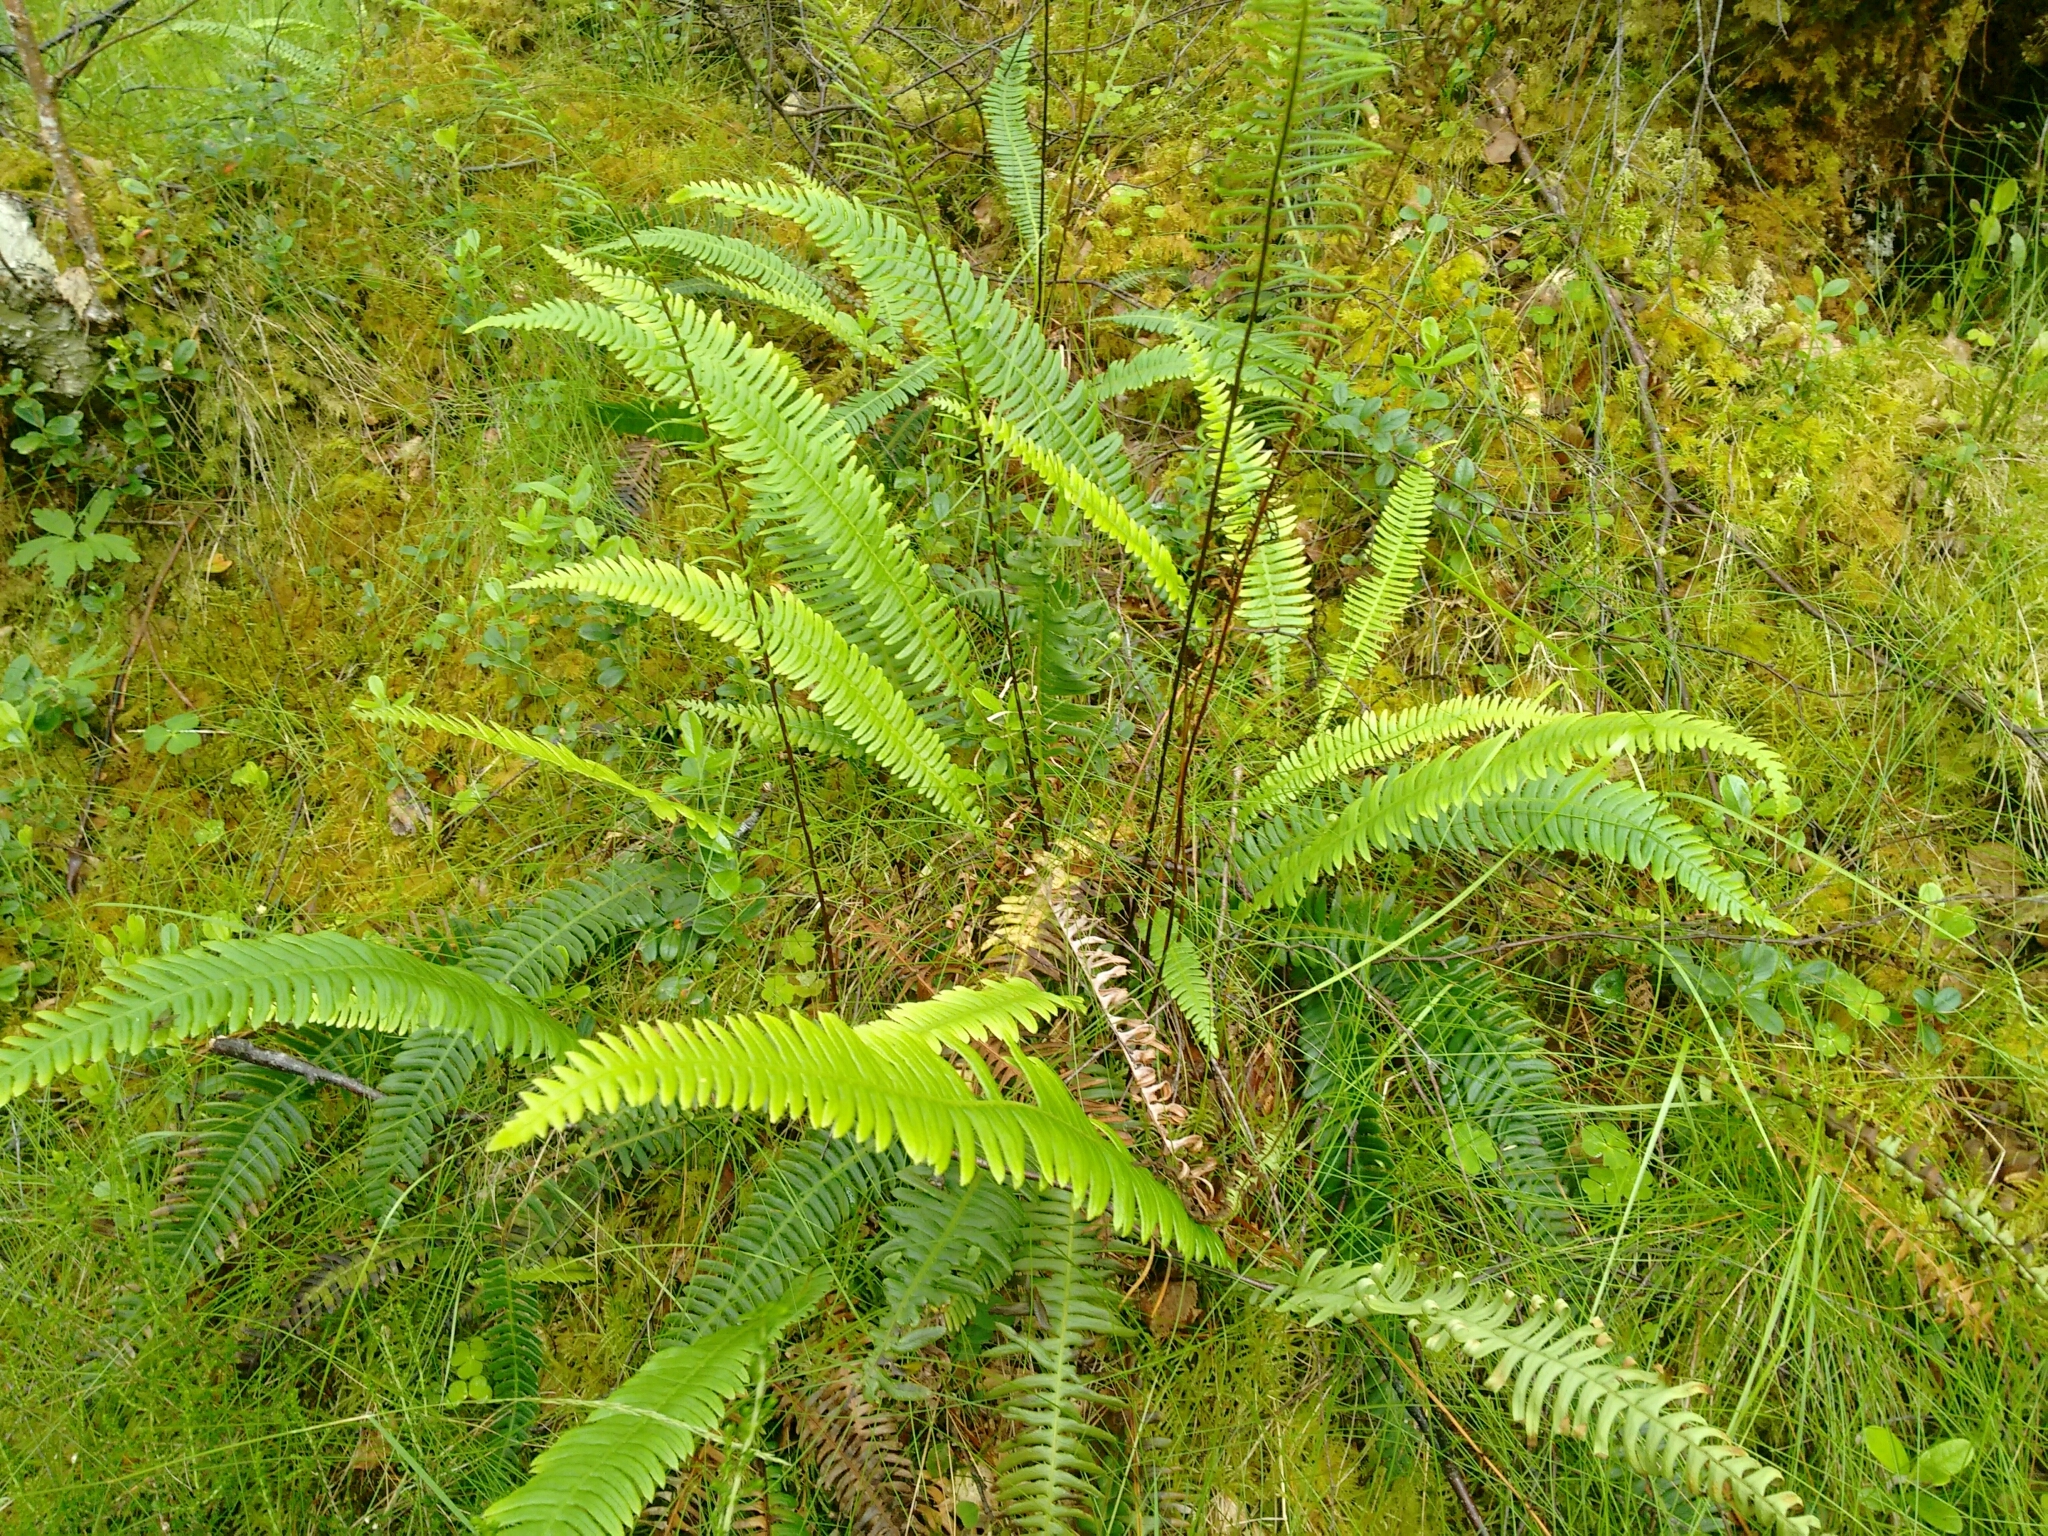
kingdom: Plantae
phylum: Tracheophyta
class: Polypodiopsida
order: Polypodiales
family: Blechnaceae
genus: Struthiopteris
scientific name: Struthiopteris spicant
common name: Deer fern
